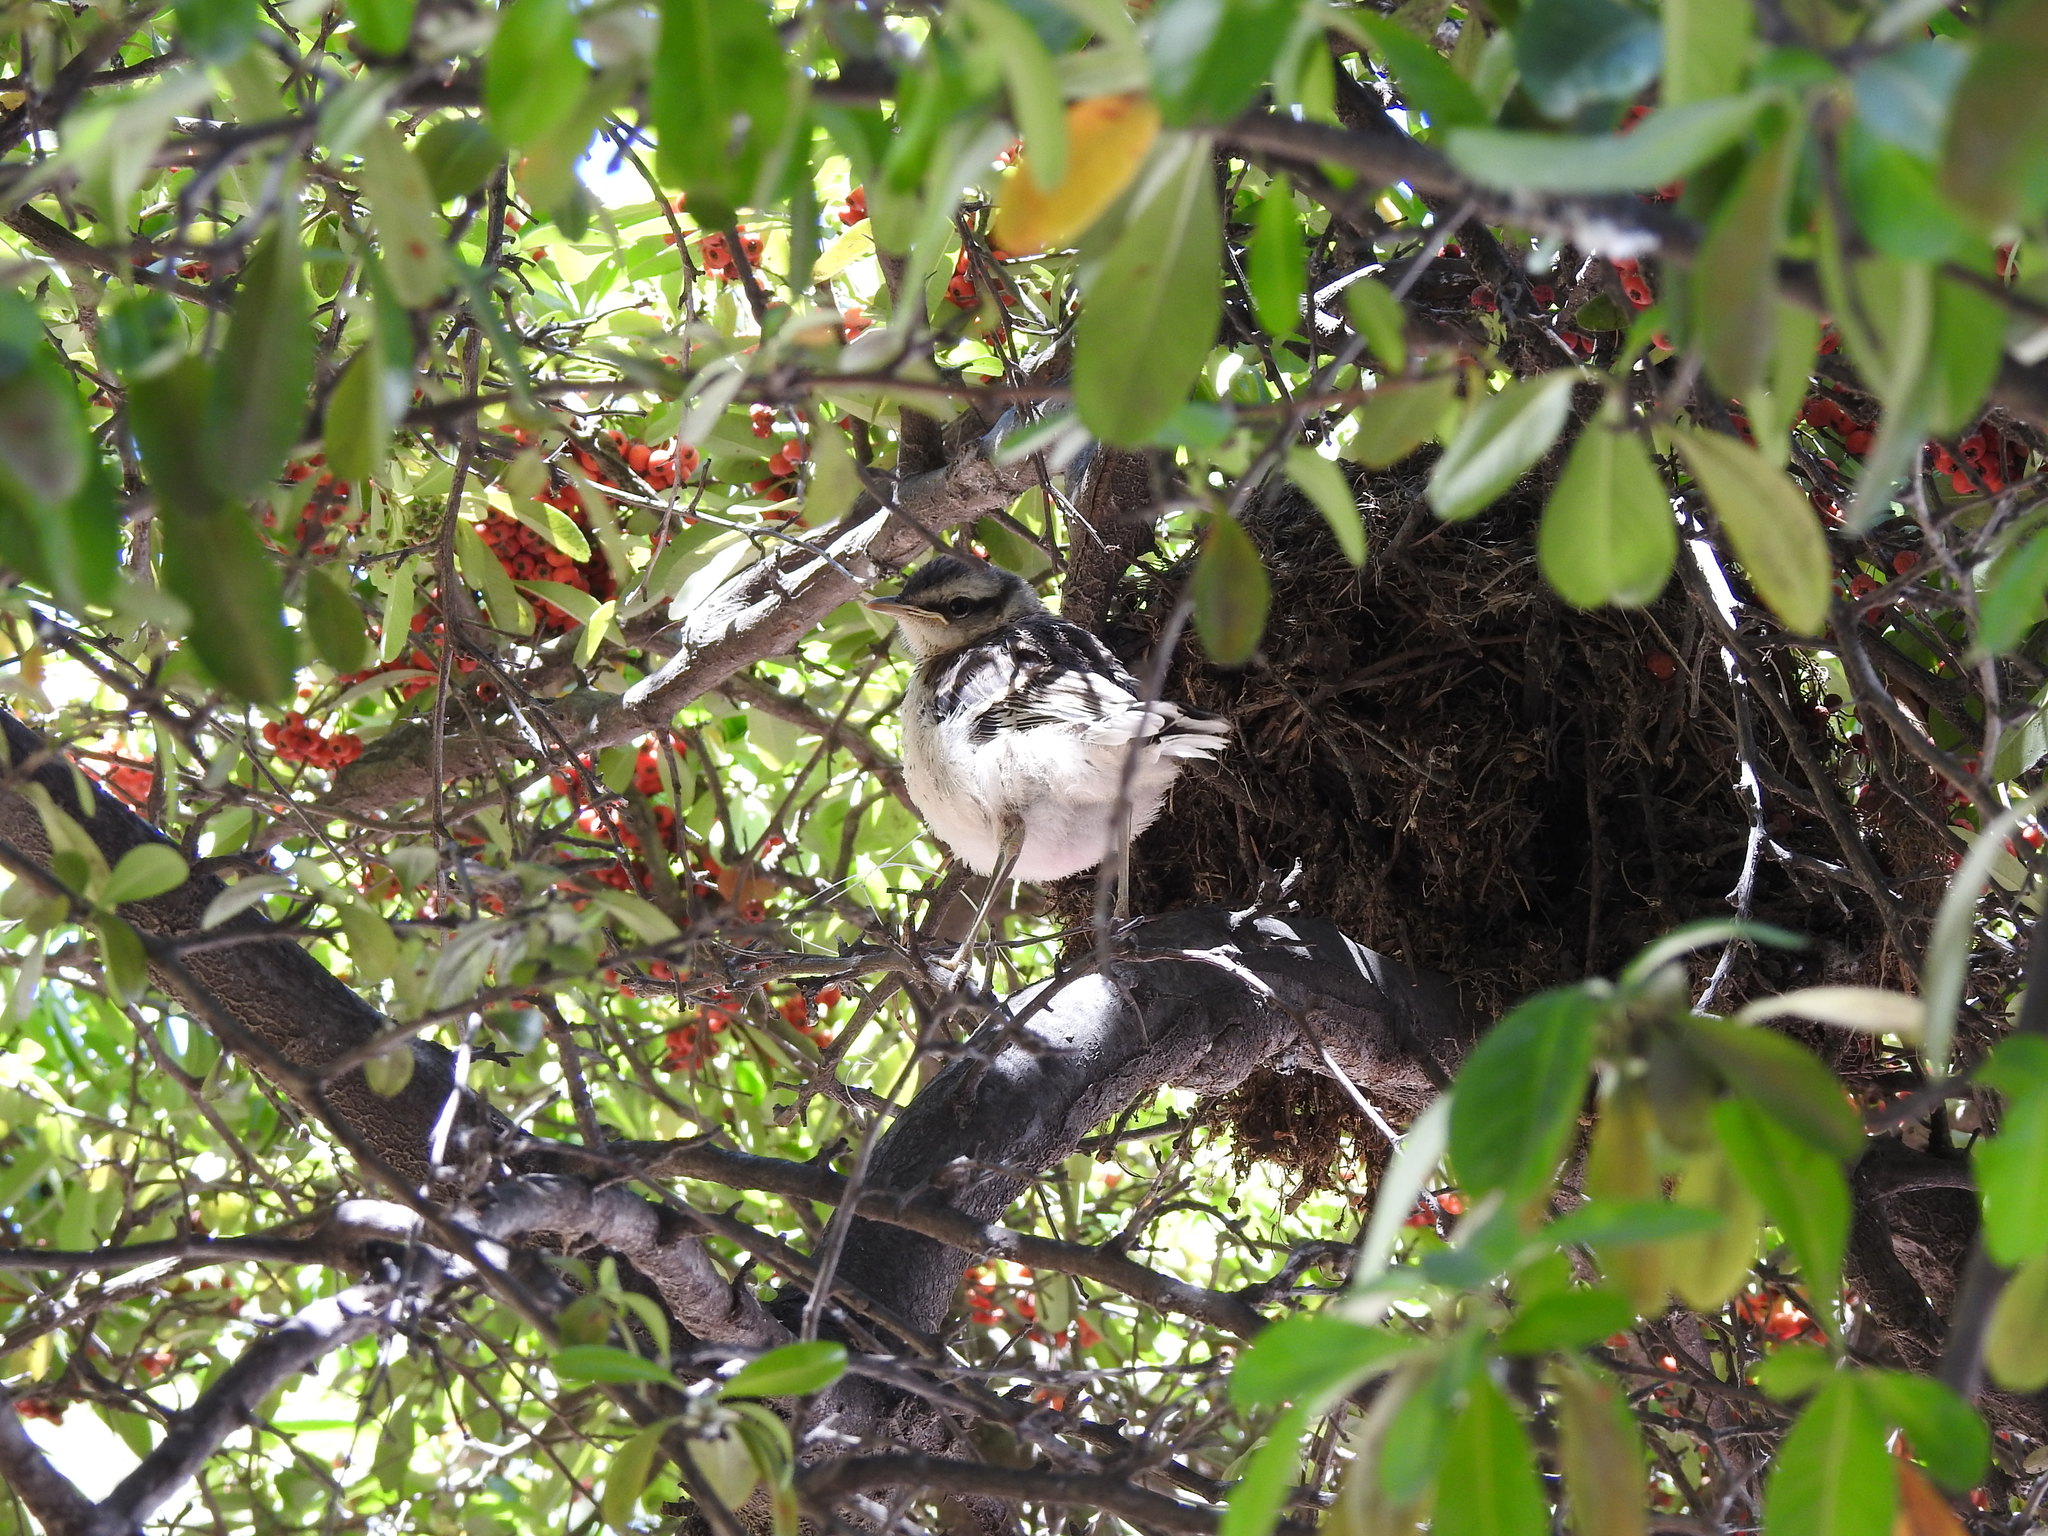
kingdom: Animalia
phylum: Chordata
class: Aves
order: Passeriformes
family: Mimidae
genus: Mimus
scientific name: Mimus saturninus
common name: Chalk-browed mockingbird
